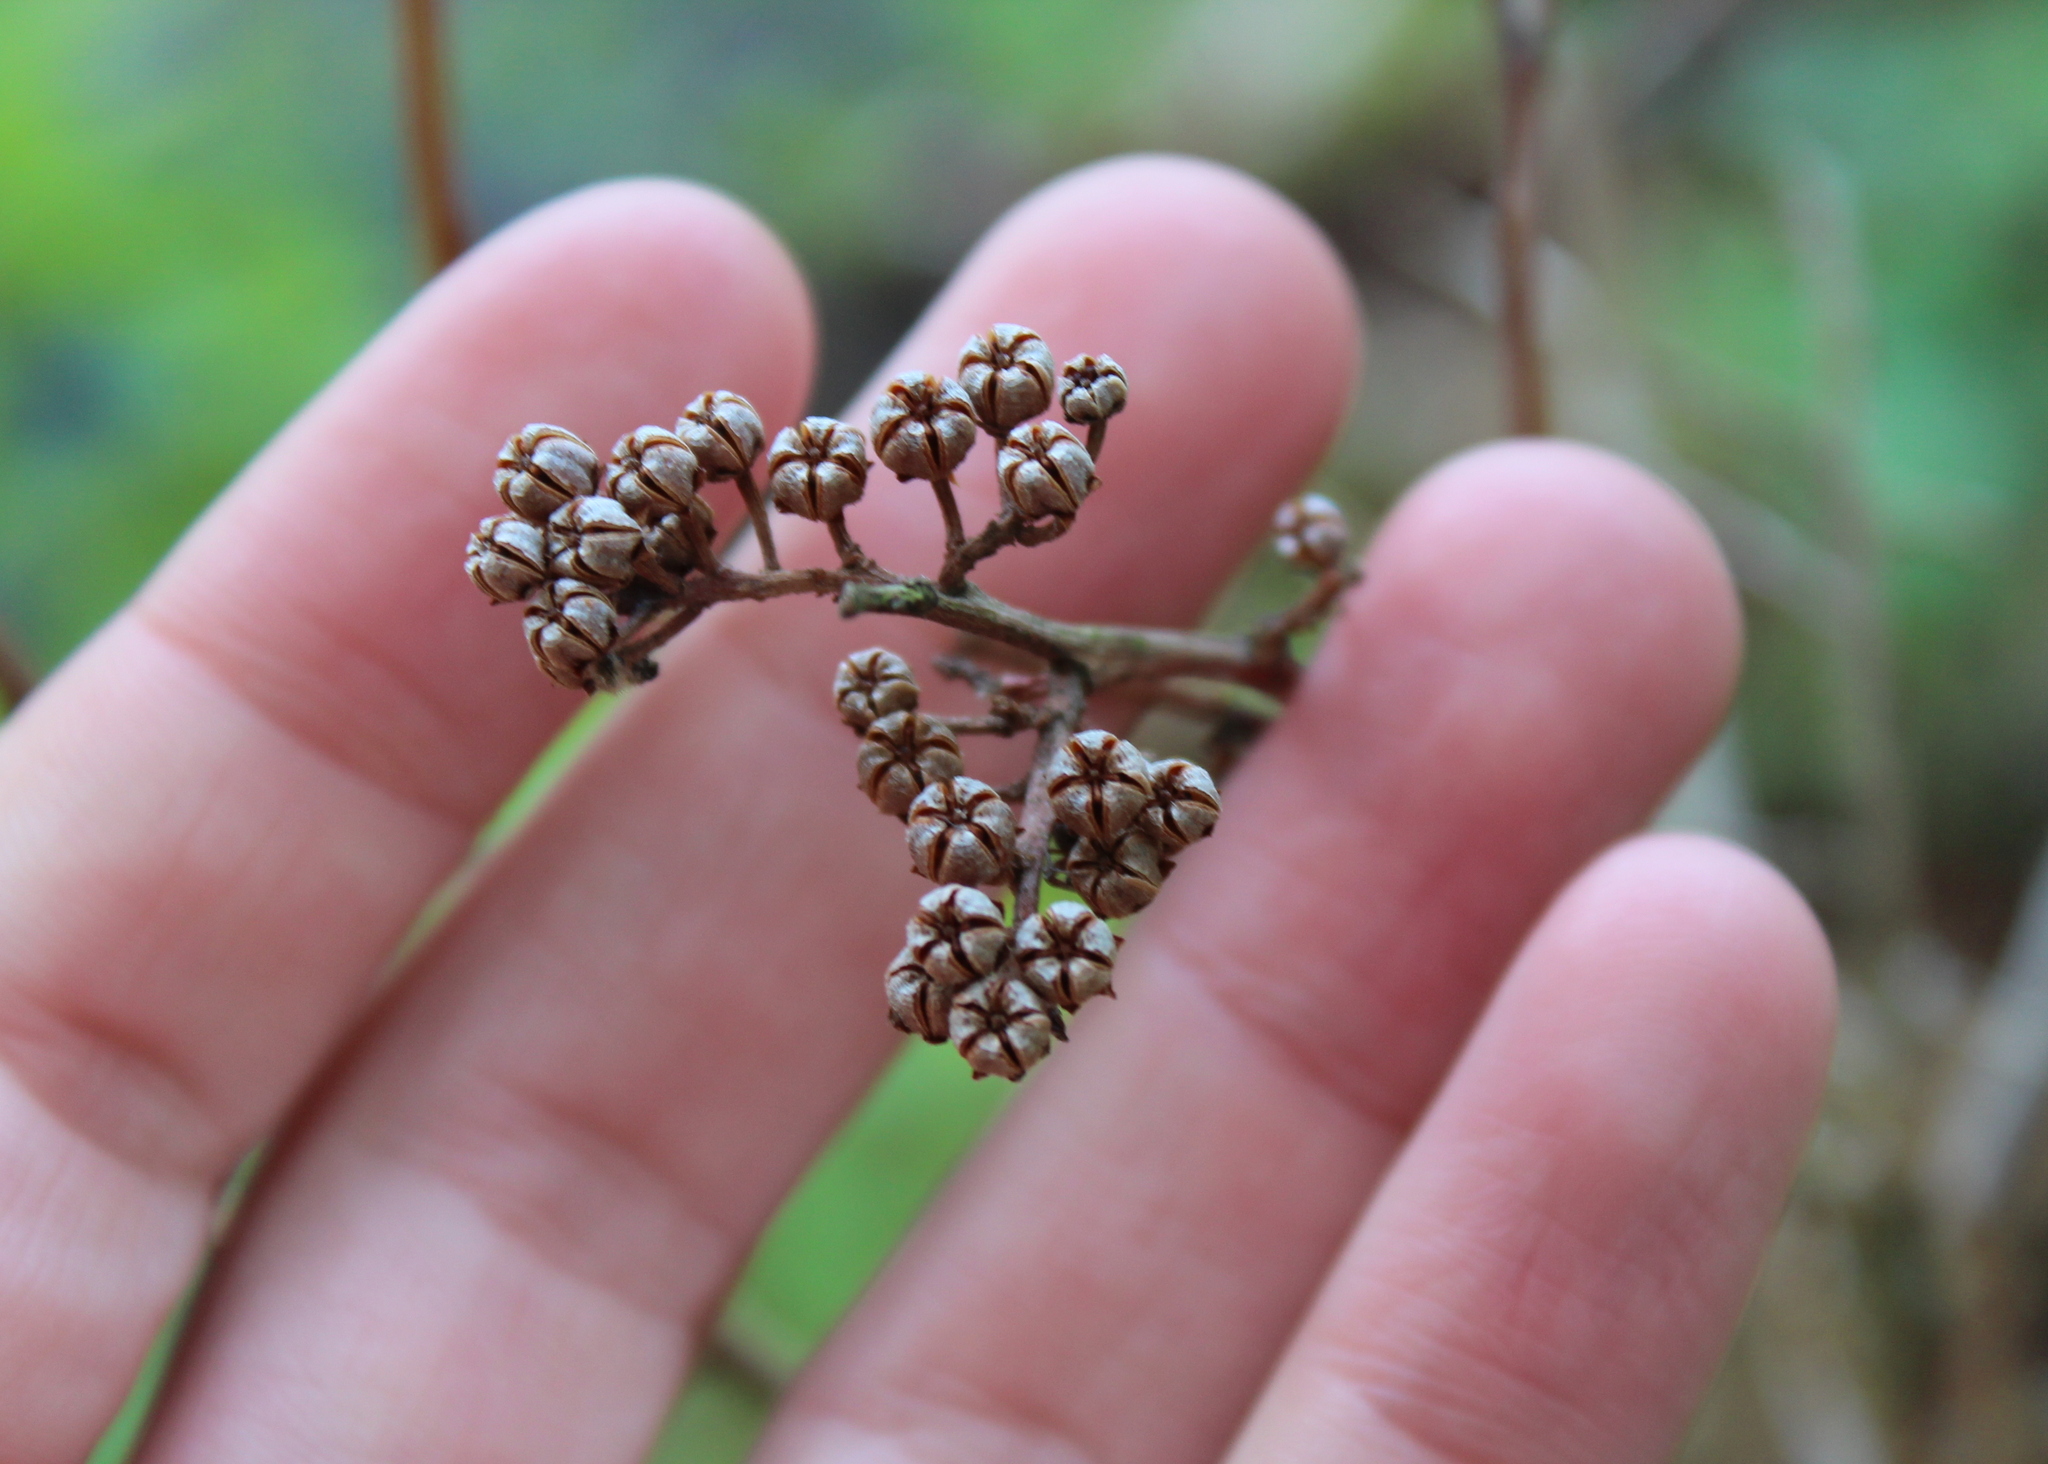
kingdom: Plantae
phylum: Tracheophyta
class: Magnoliopsida
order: Ericales
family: Ericaceae
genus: Lyonia
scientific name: Lyonia ligustrina
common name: Maleberry
